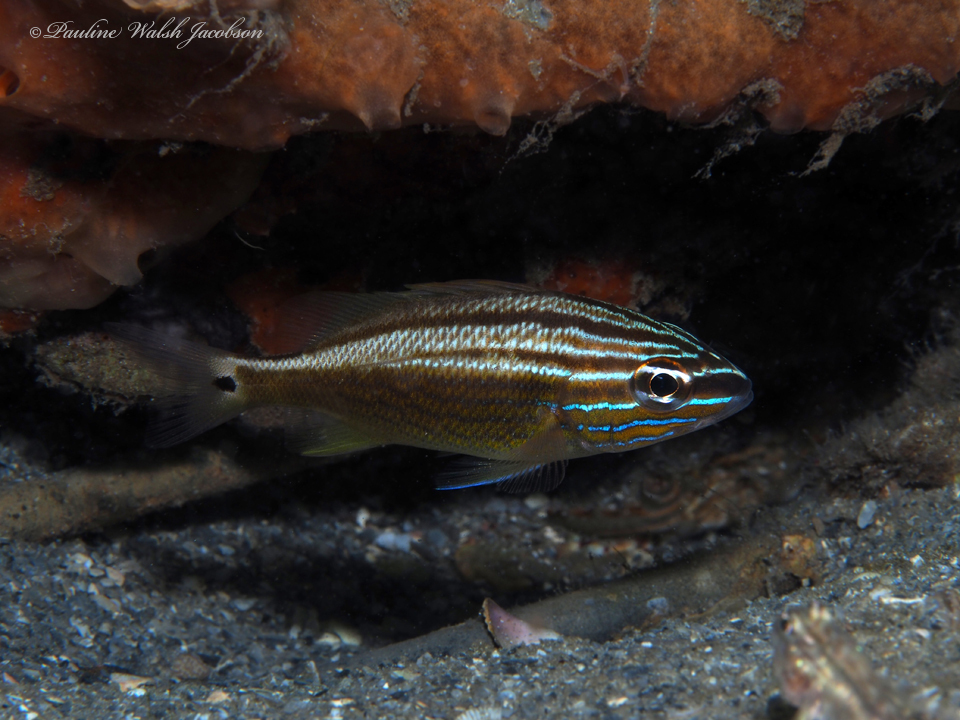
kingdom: Animalia
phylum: Chordata
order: Perciformes
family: Haemulidae
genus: Haemulon
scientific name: Haemulon plumierii
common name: White grunt
